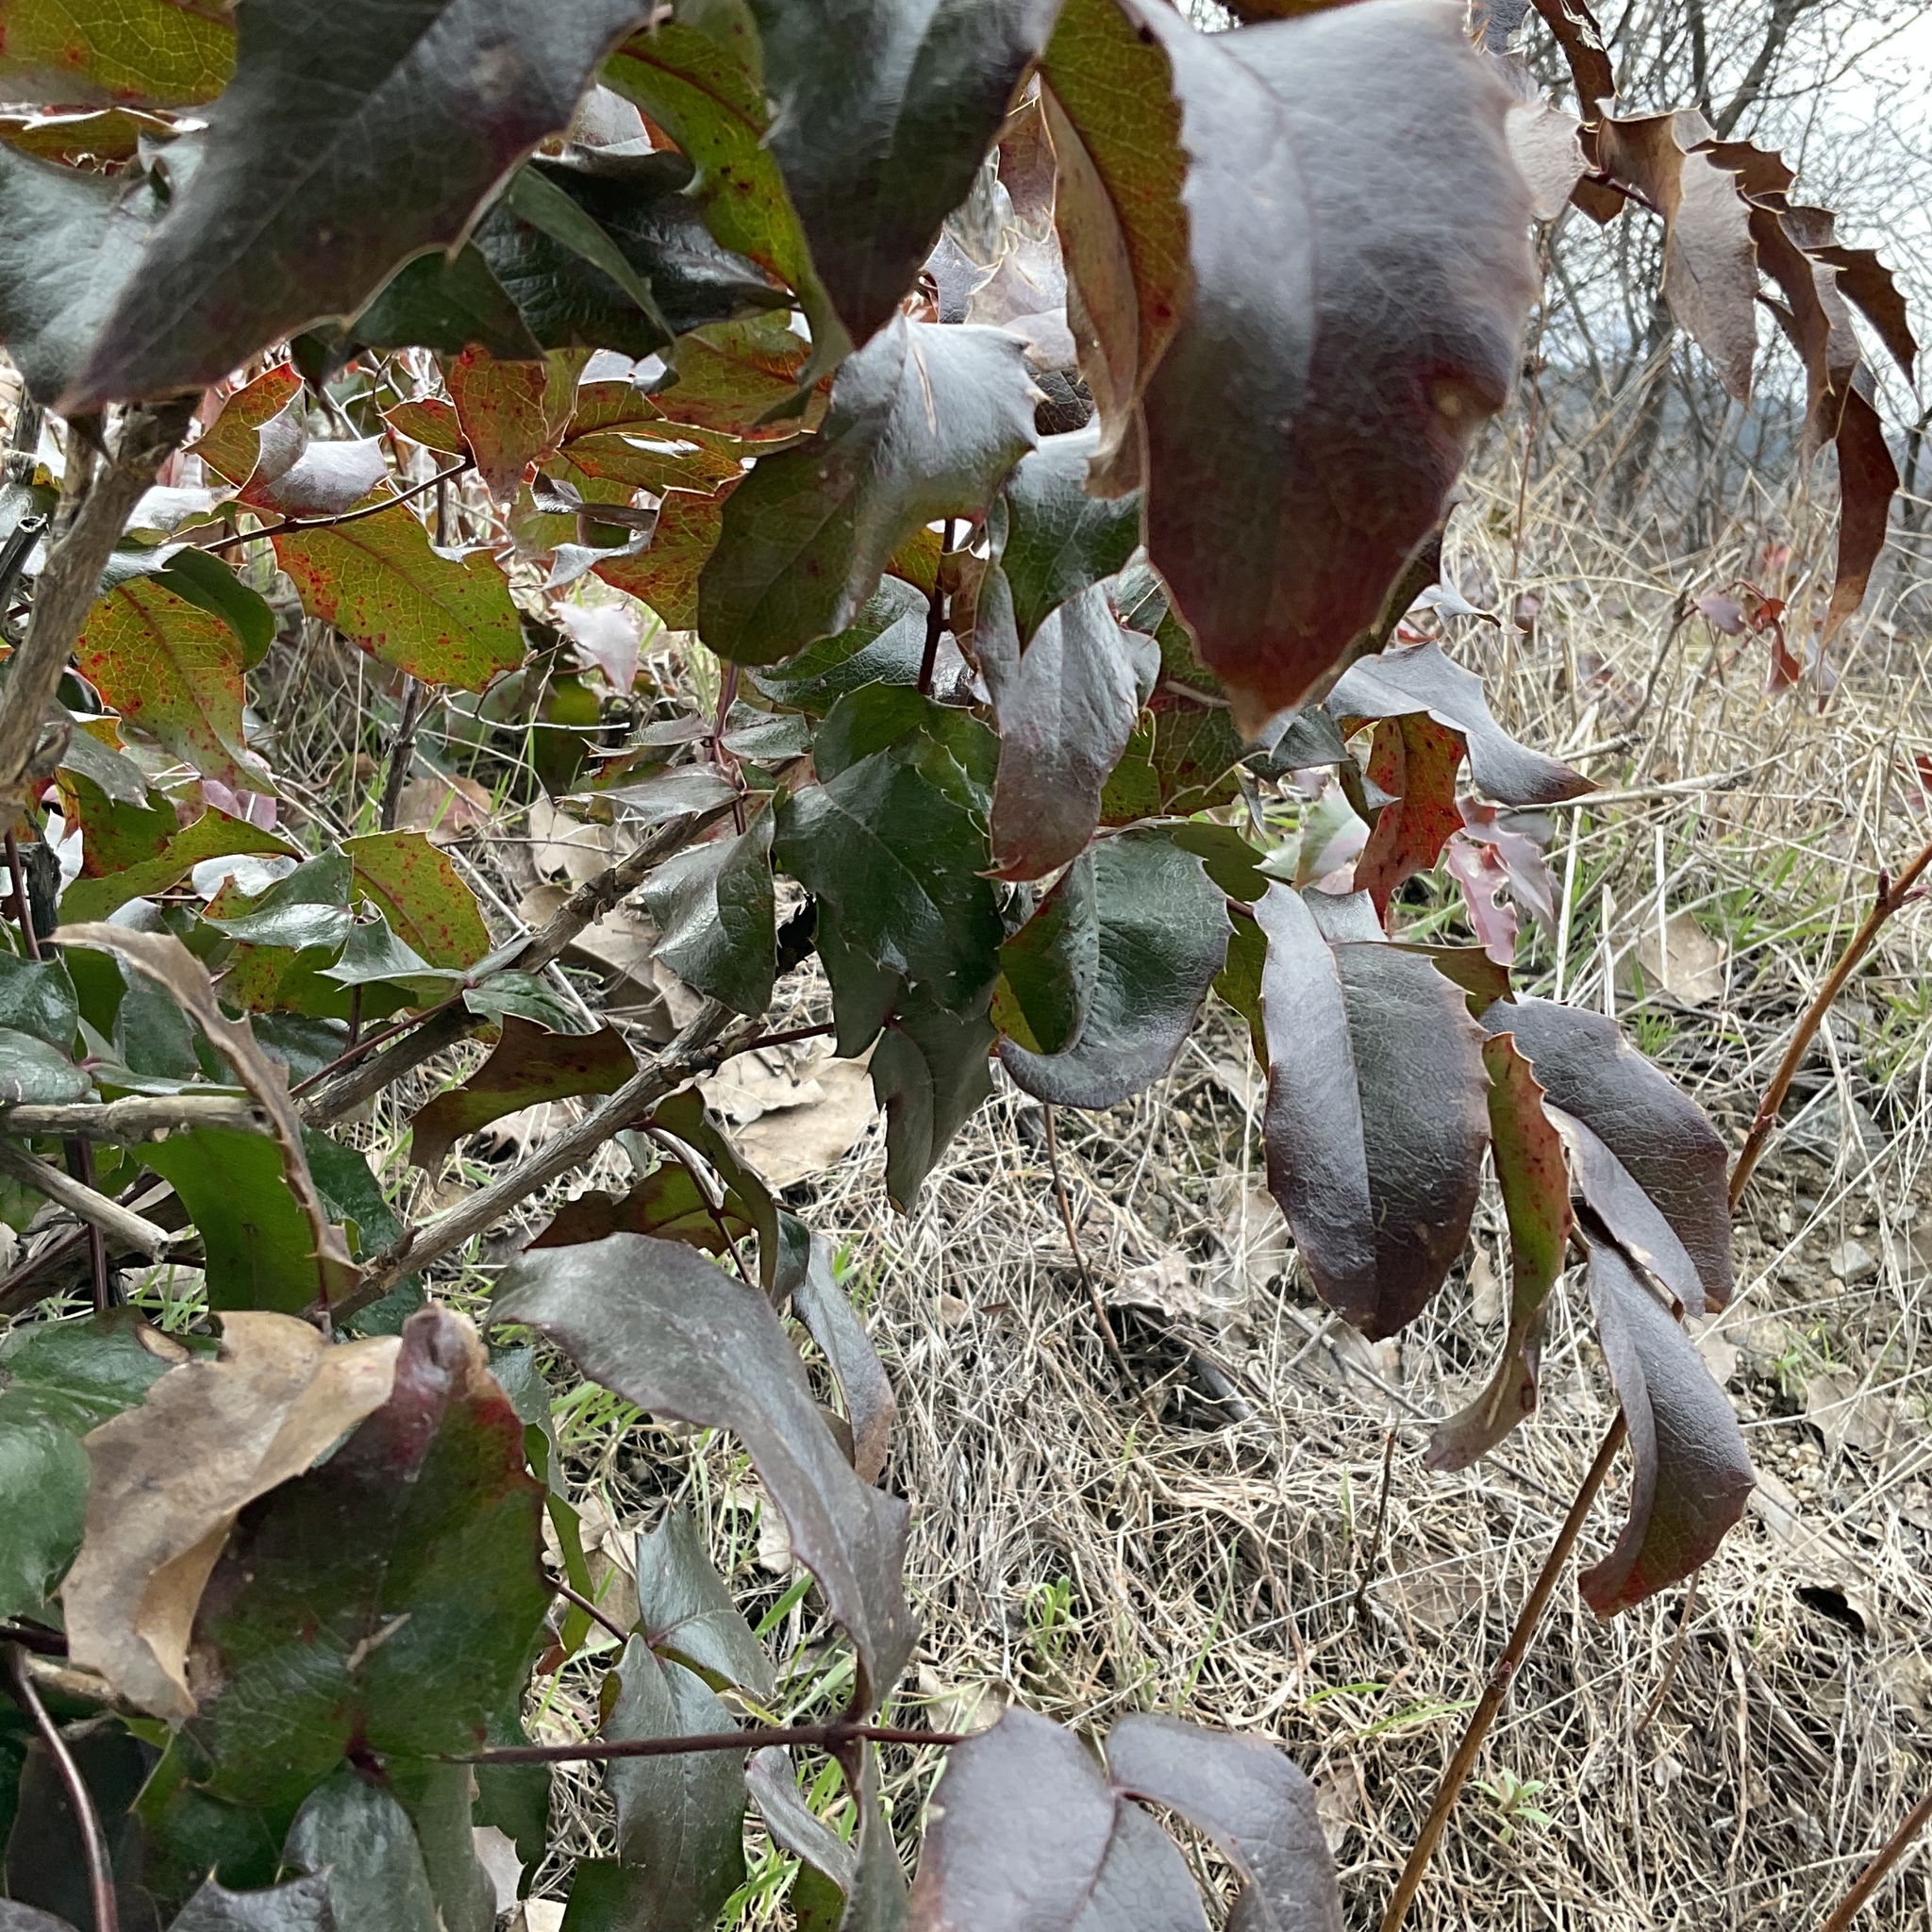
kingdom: Plantae
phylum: Tracheophyta
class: Magnoliopsida
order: Ranunculales
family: Berberidaceae
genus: Mahonia
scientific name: Mahonia aquifolium
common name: Oregon-grape
